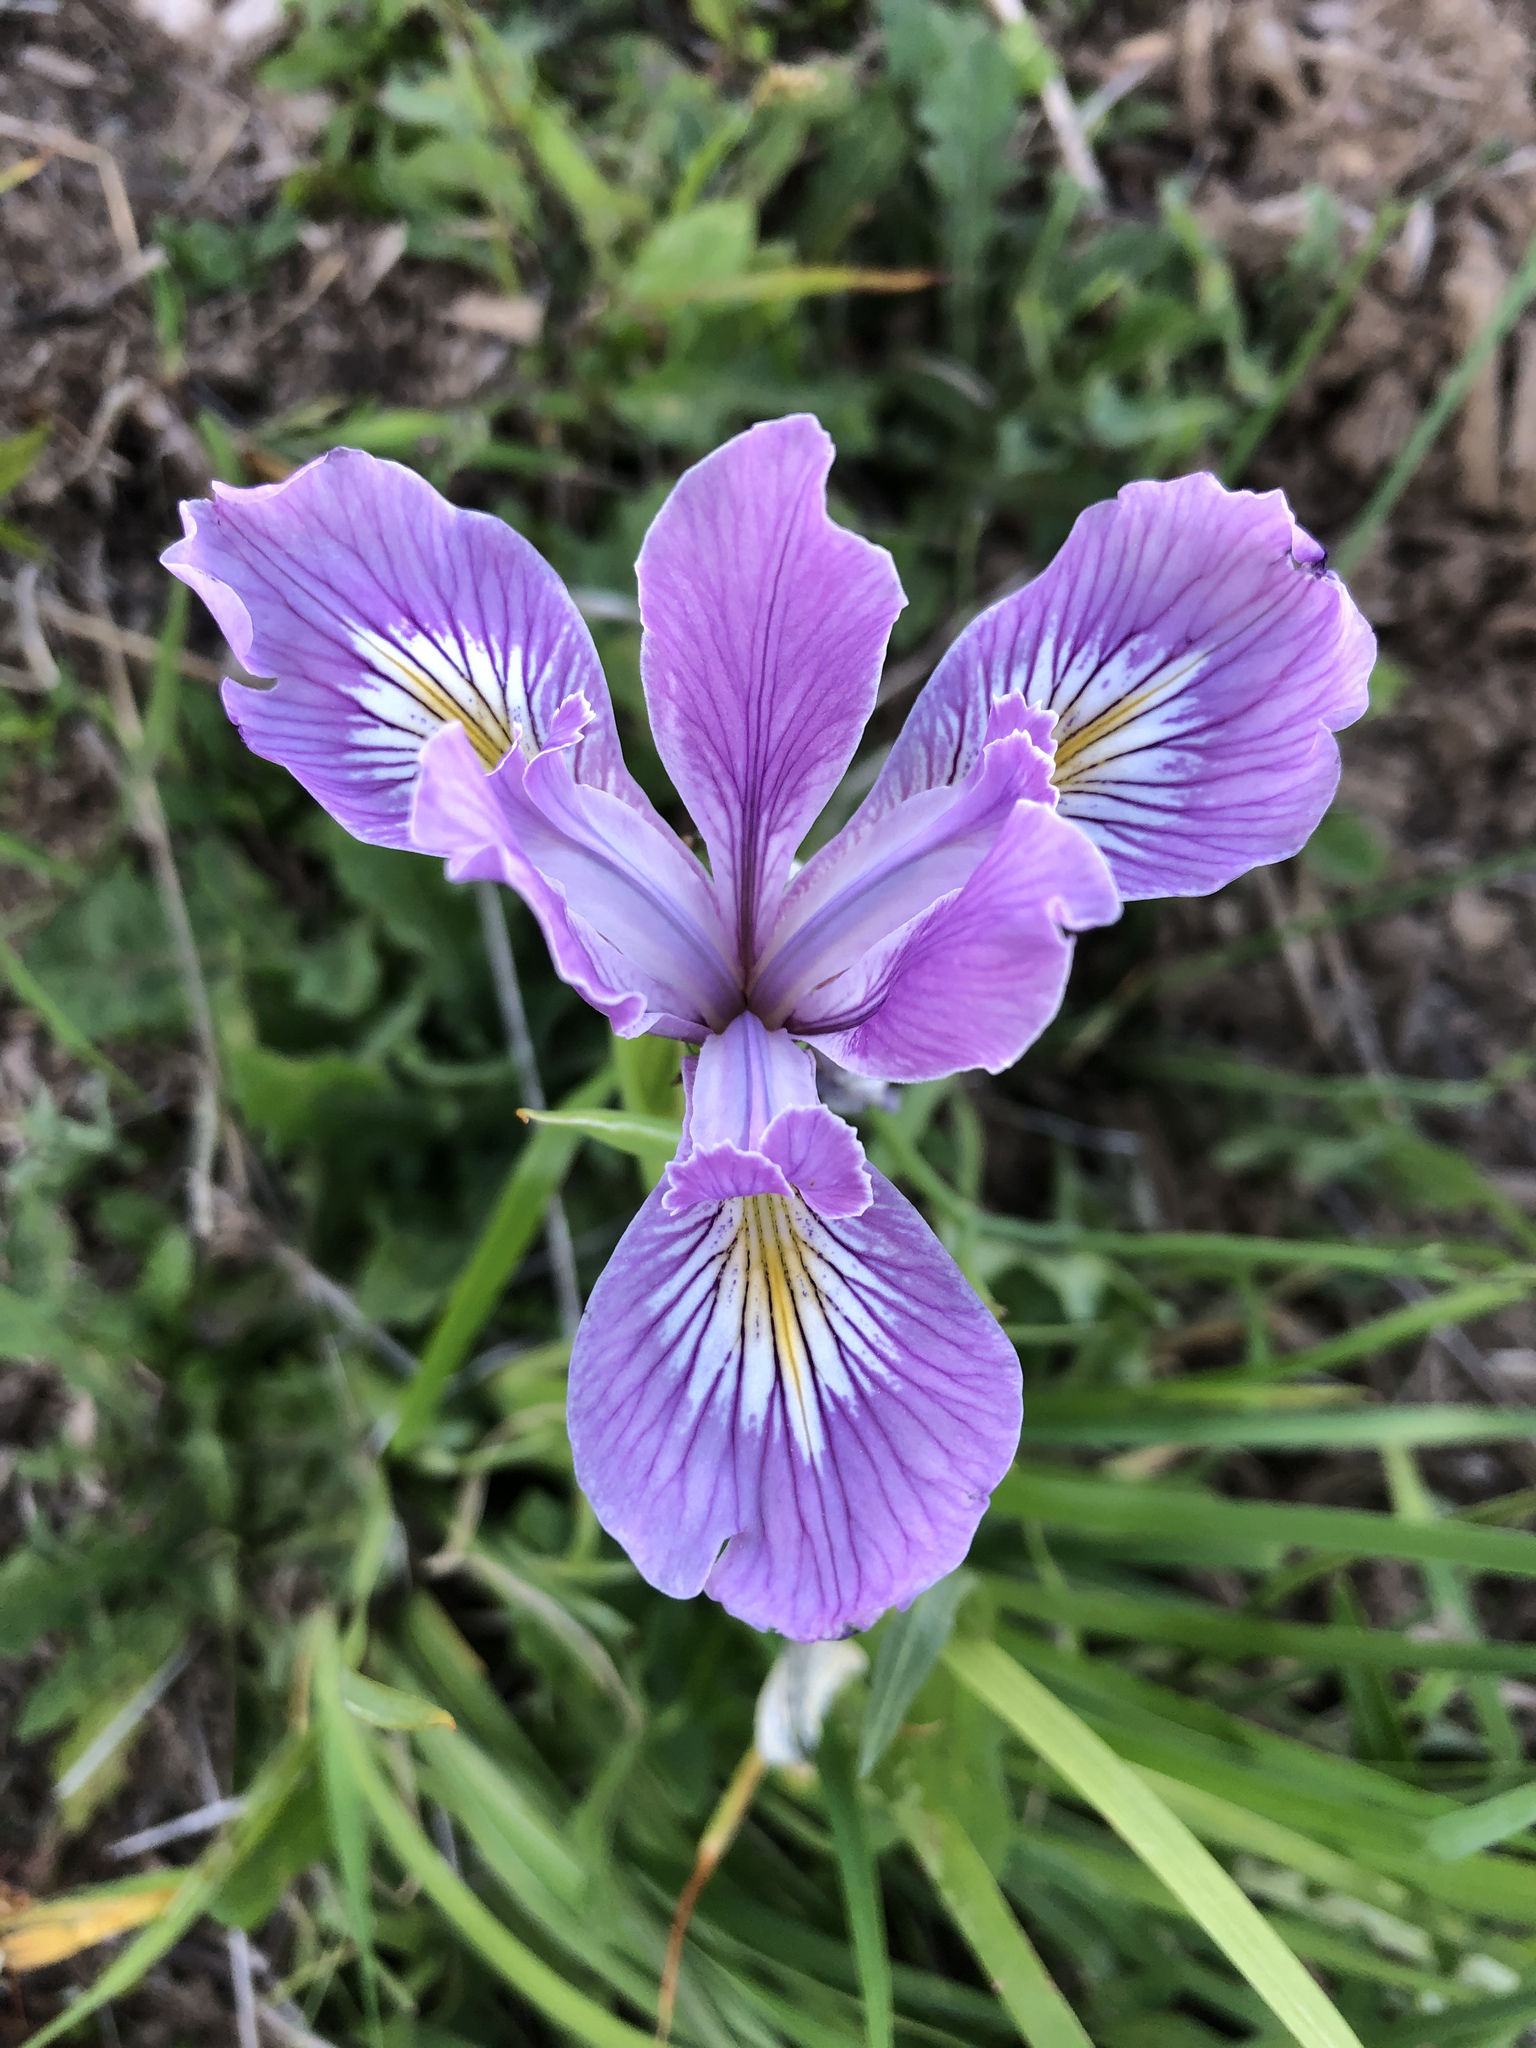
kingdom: Plantae
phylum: Tracheophyta
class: Liliopsida
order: Asparagales
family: Iridaceae
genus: Iris
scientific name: Iris tenax
